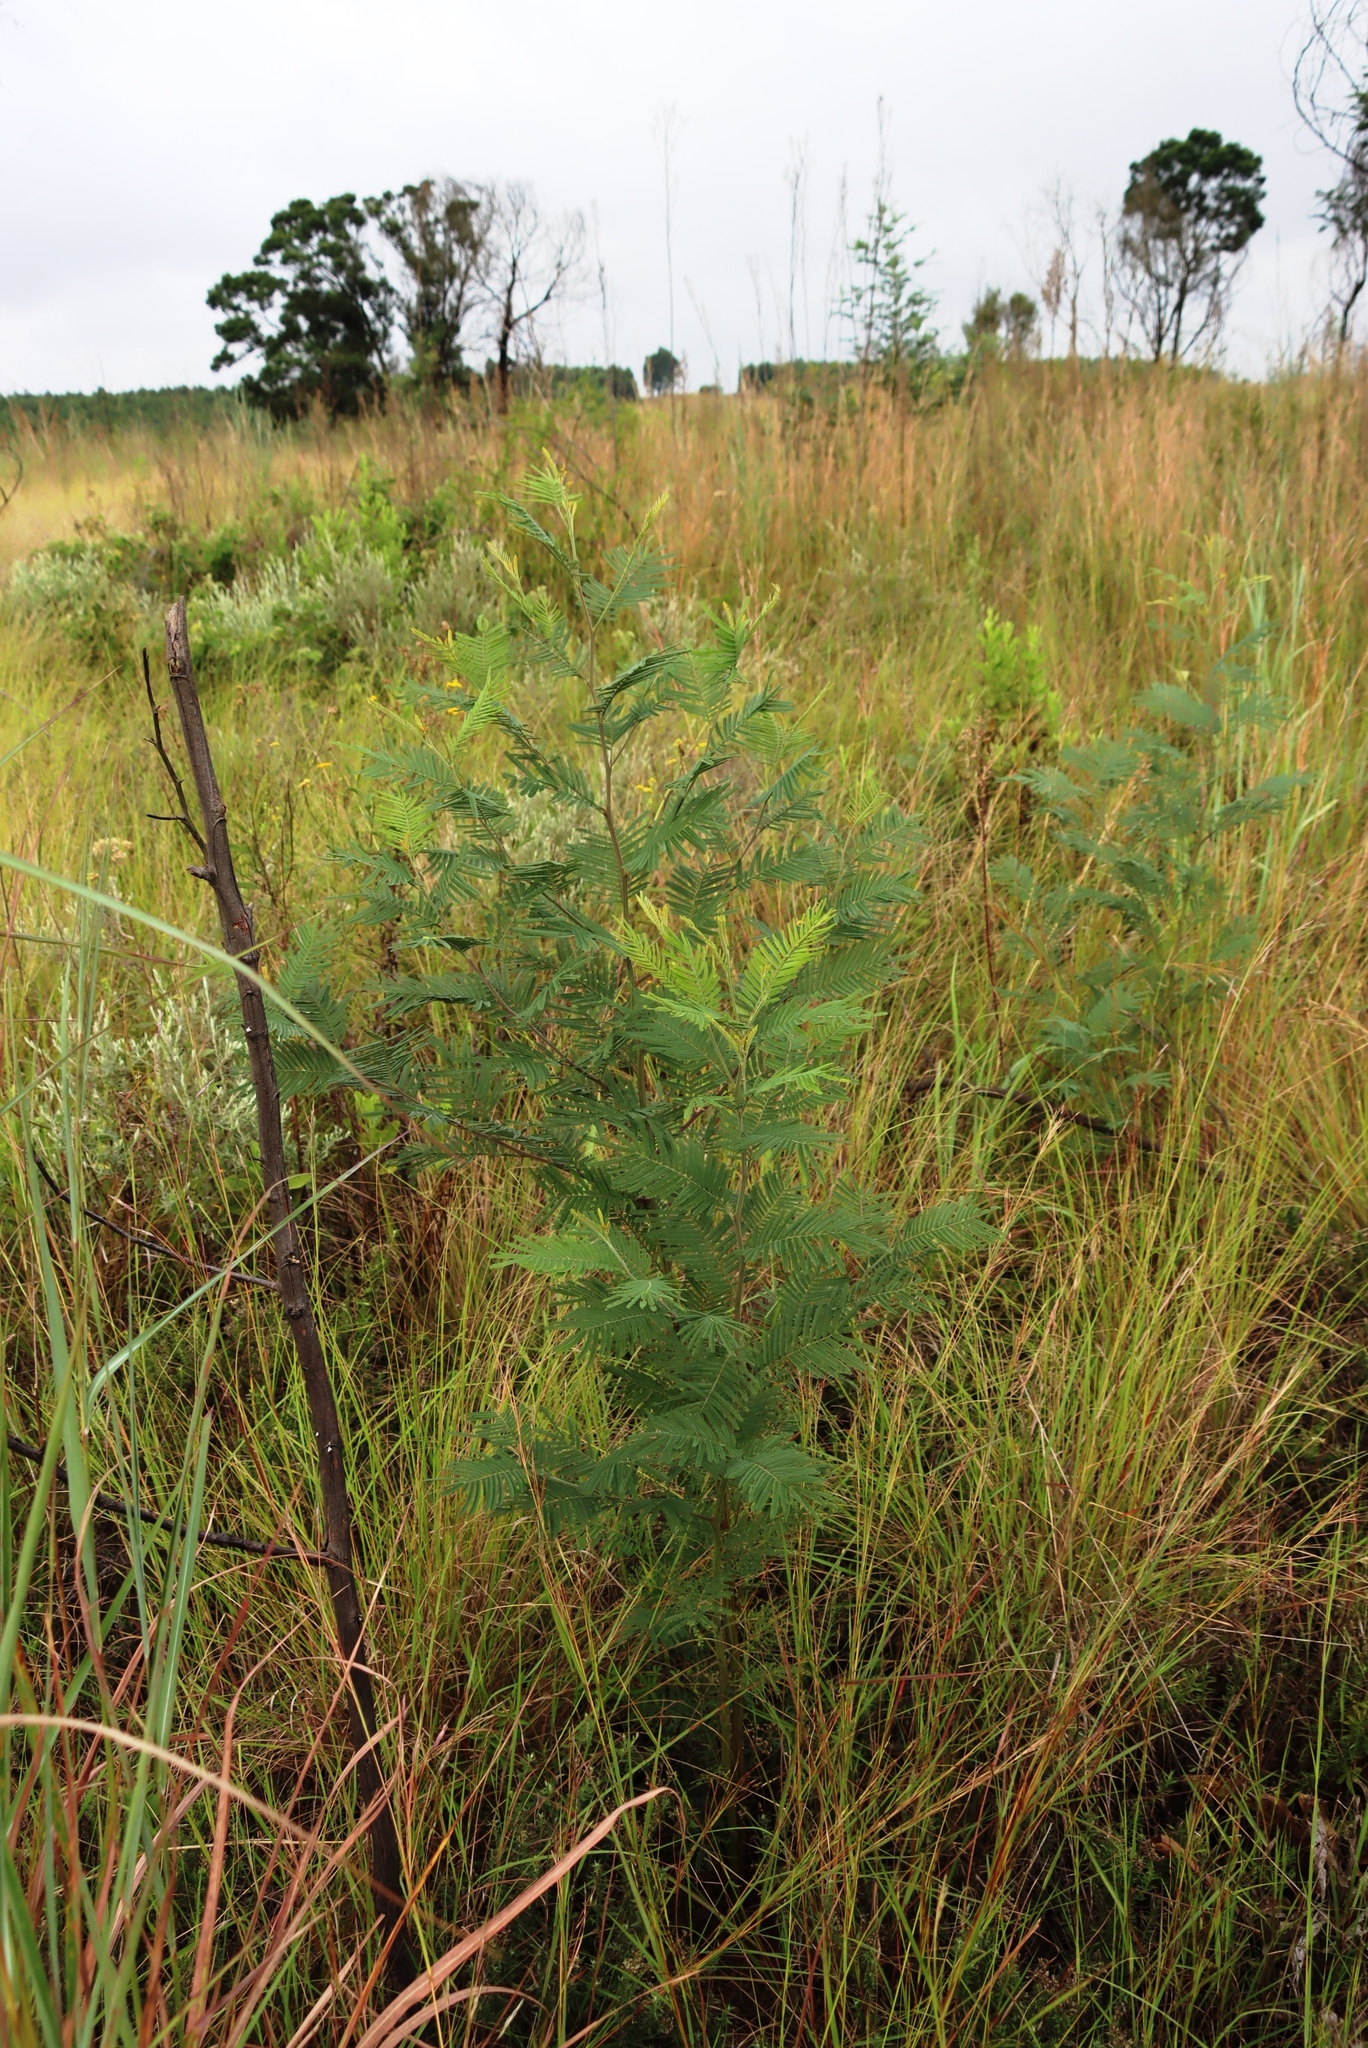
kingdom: Plantae
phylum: Tracheophyta
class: Magnoliopsida
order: Fabales
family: Fabaceae
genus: Acacia
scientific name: Acacia mearnsii
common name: Black wattle
